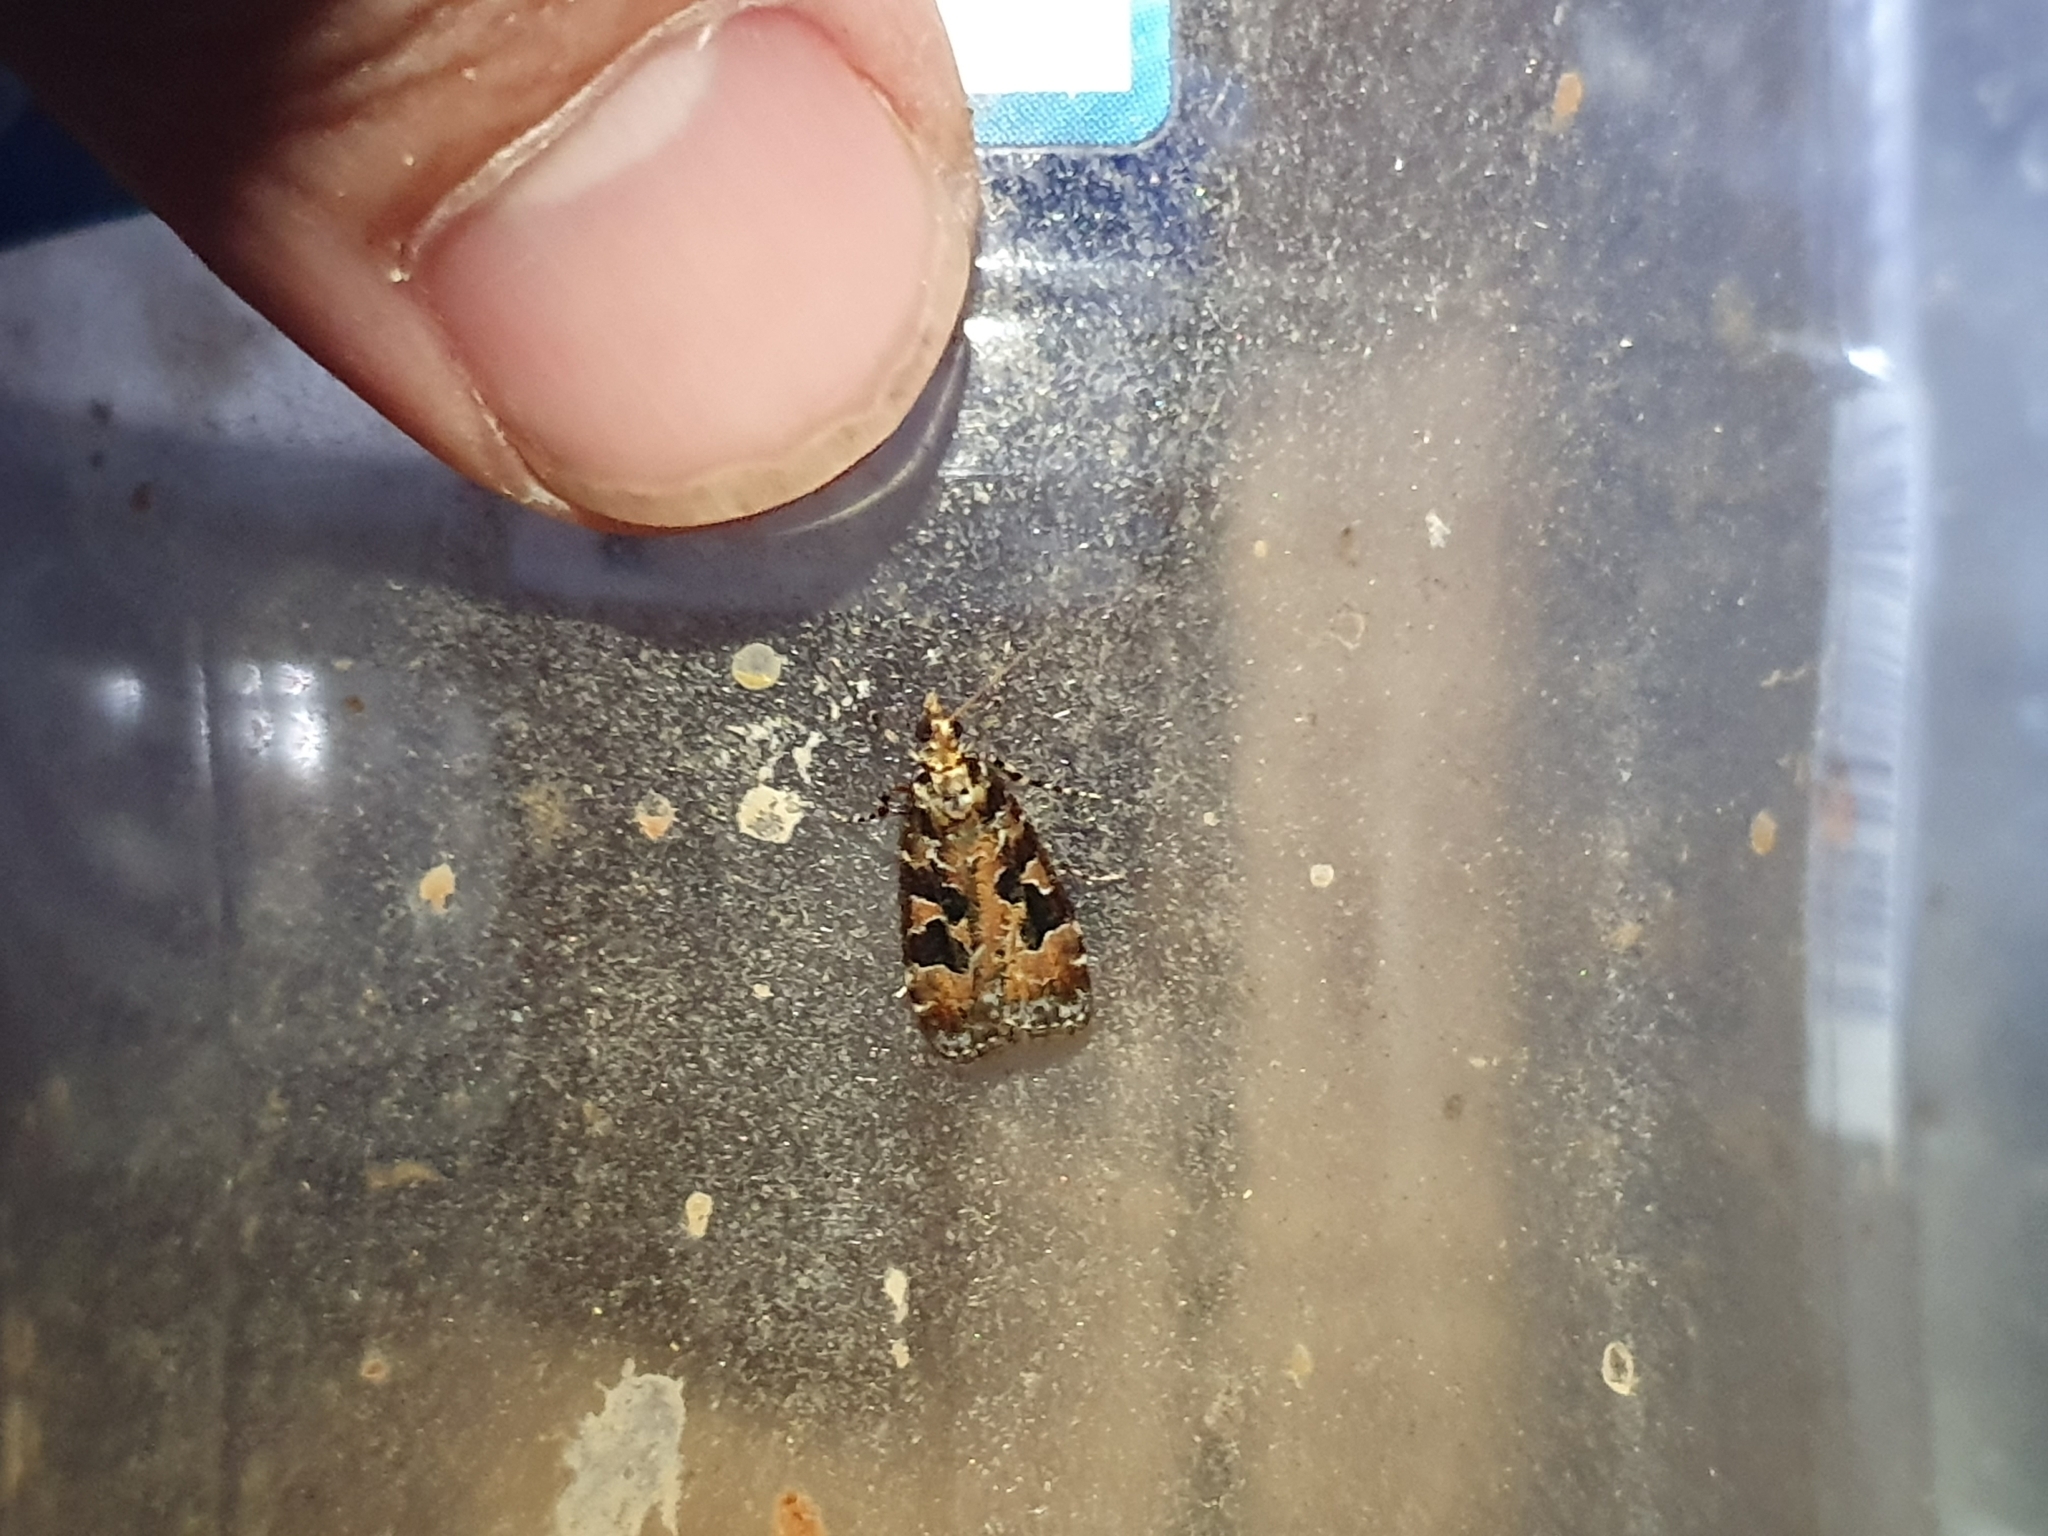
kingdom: Animalia
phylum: Arthropoda
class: Insecta
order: Lepidoptera
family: Crambidae
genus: Scoparia
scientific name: Scoparia ustimacula
